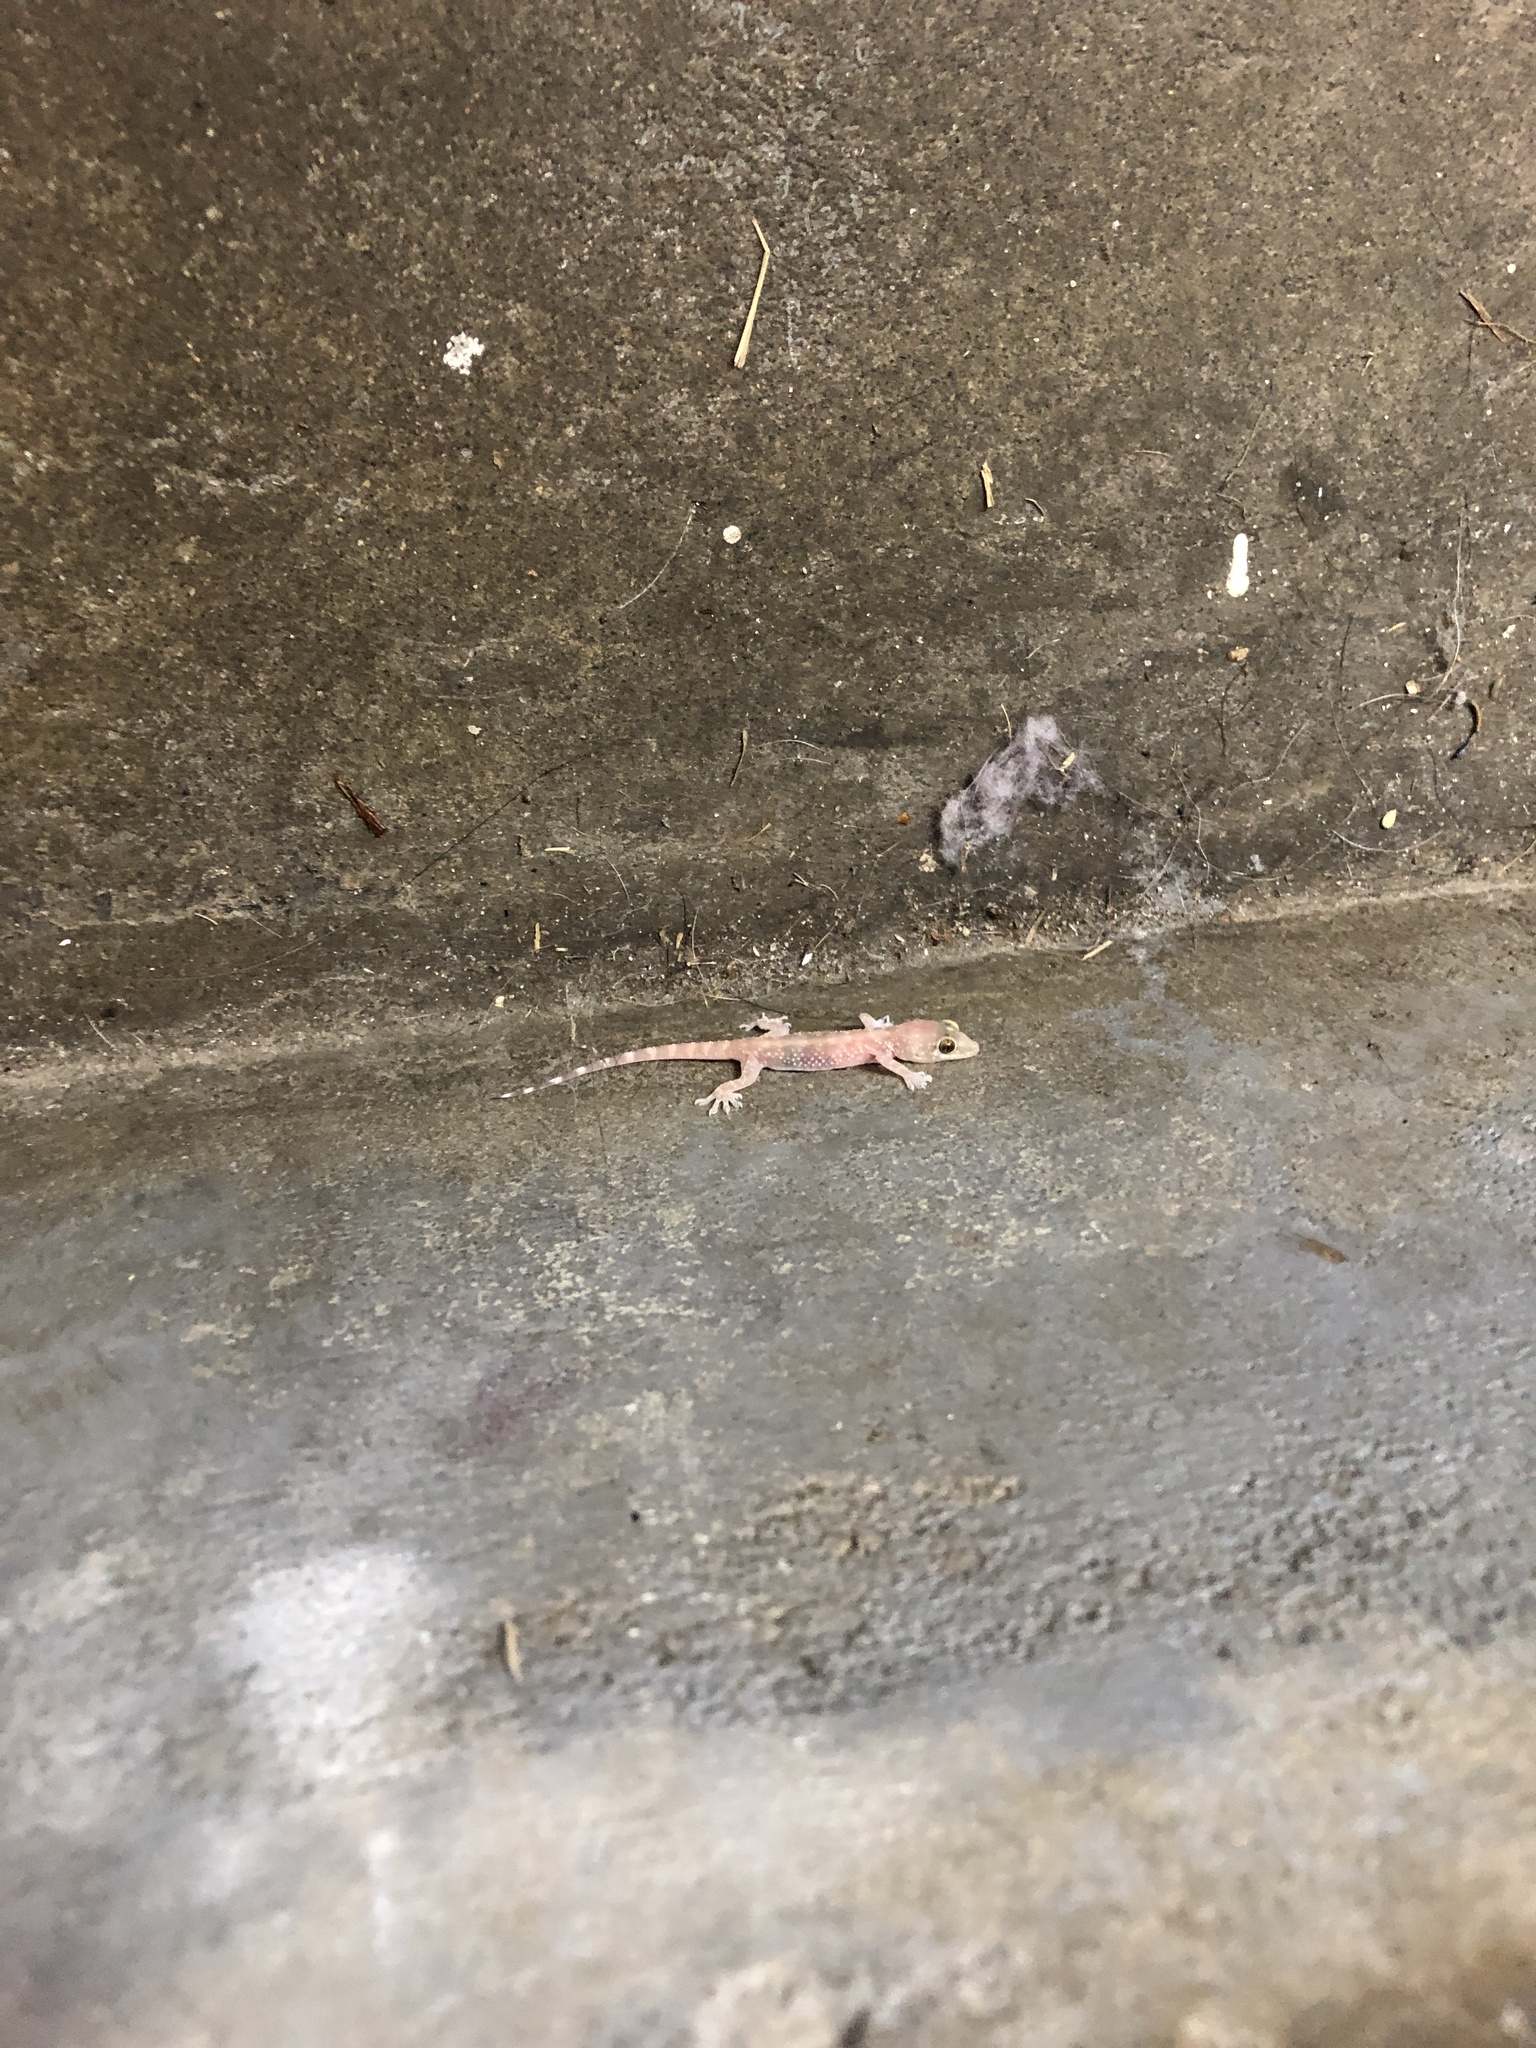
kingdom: Animalia
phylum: Chordata
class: Squamata
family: Gekkonidae
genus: Hemidactylus
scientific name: Hemidactylus turcicus
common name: Turkish gecko
